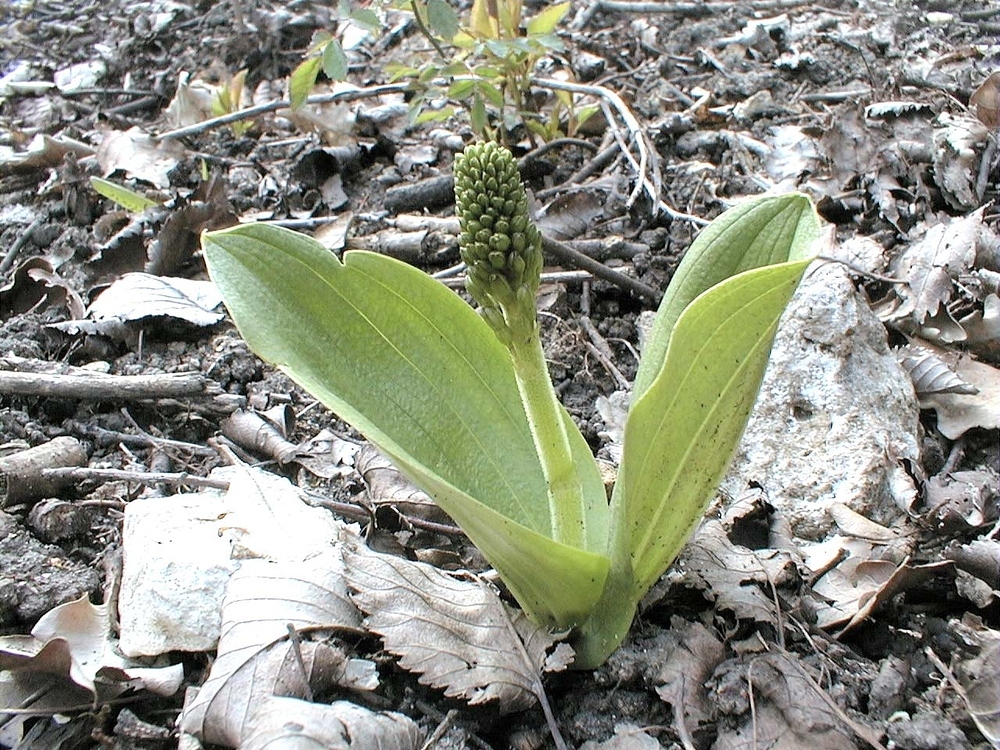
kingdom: Plantae
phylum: Tracheophyta
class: Liliopsida
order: Asparagales
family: Orchidaceae
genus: Neottia
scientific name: Neottia ovata
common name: Common twayblade
